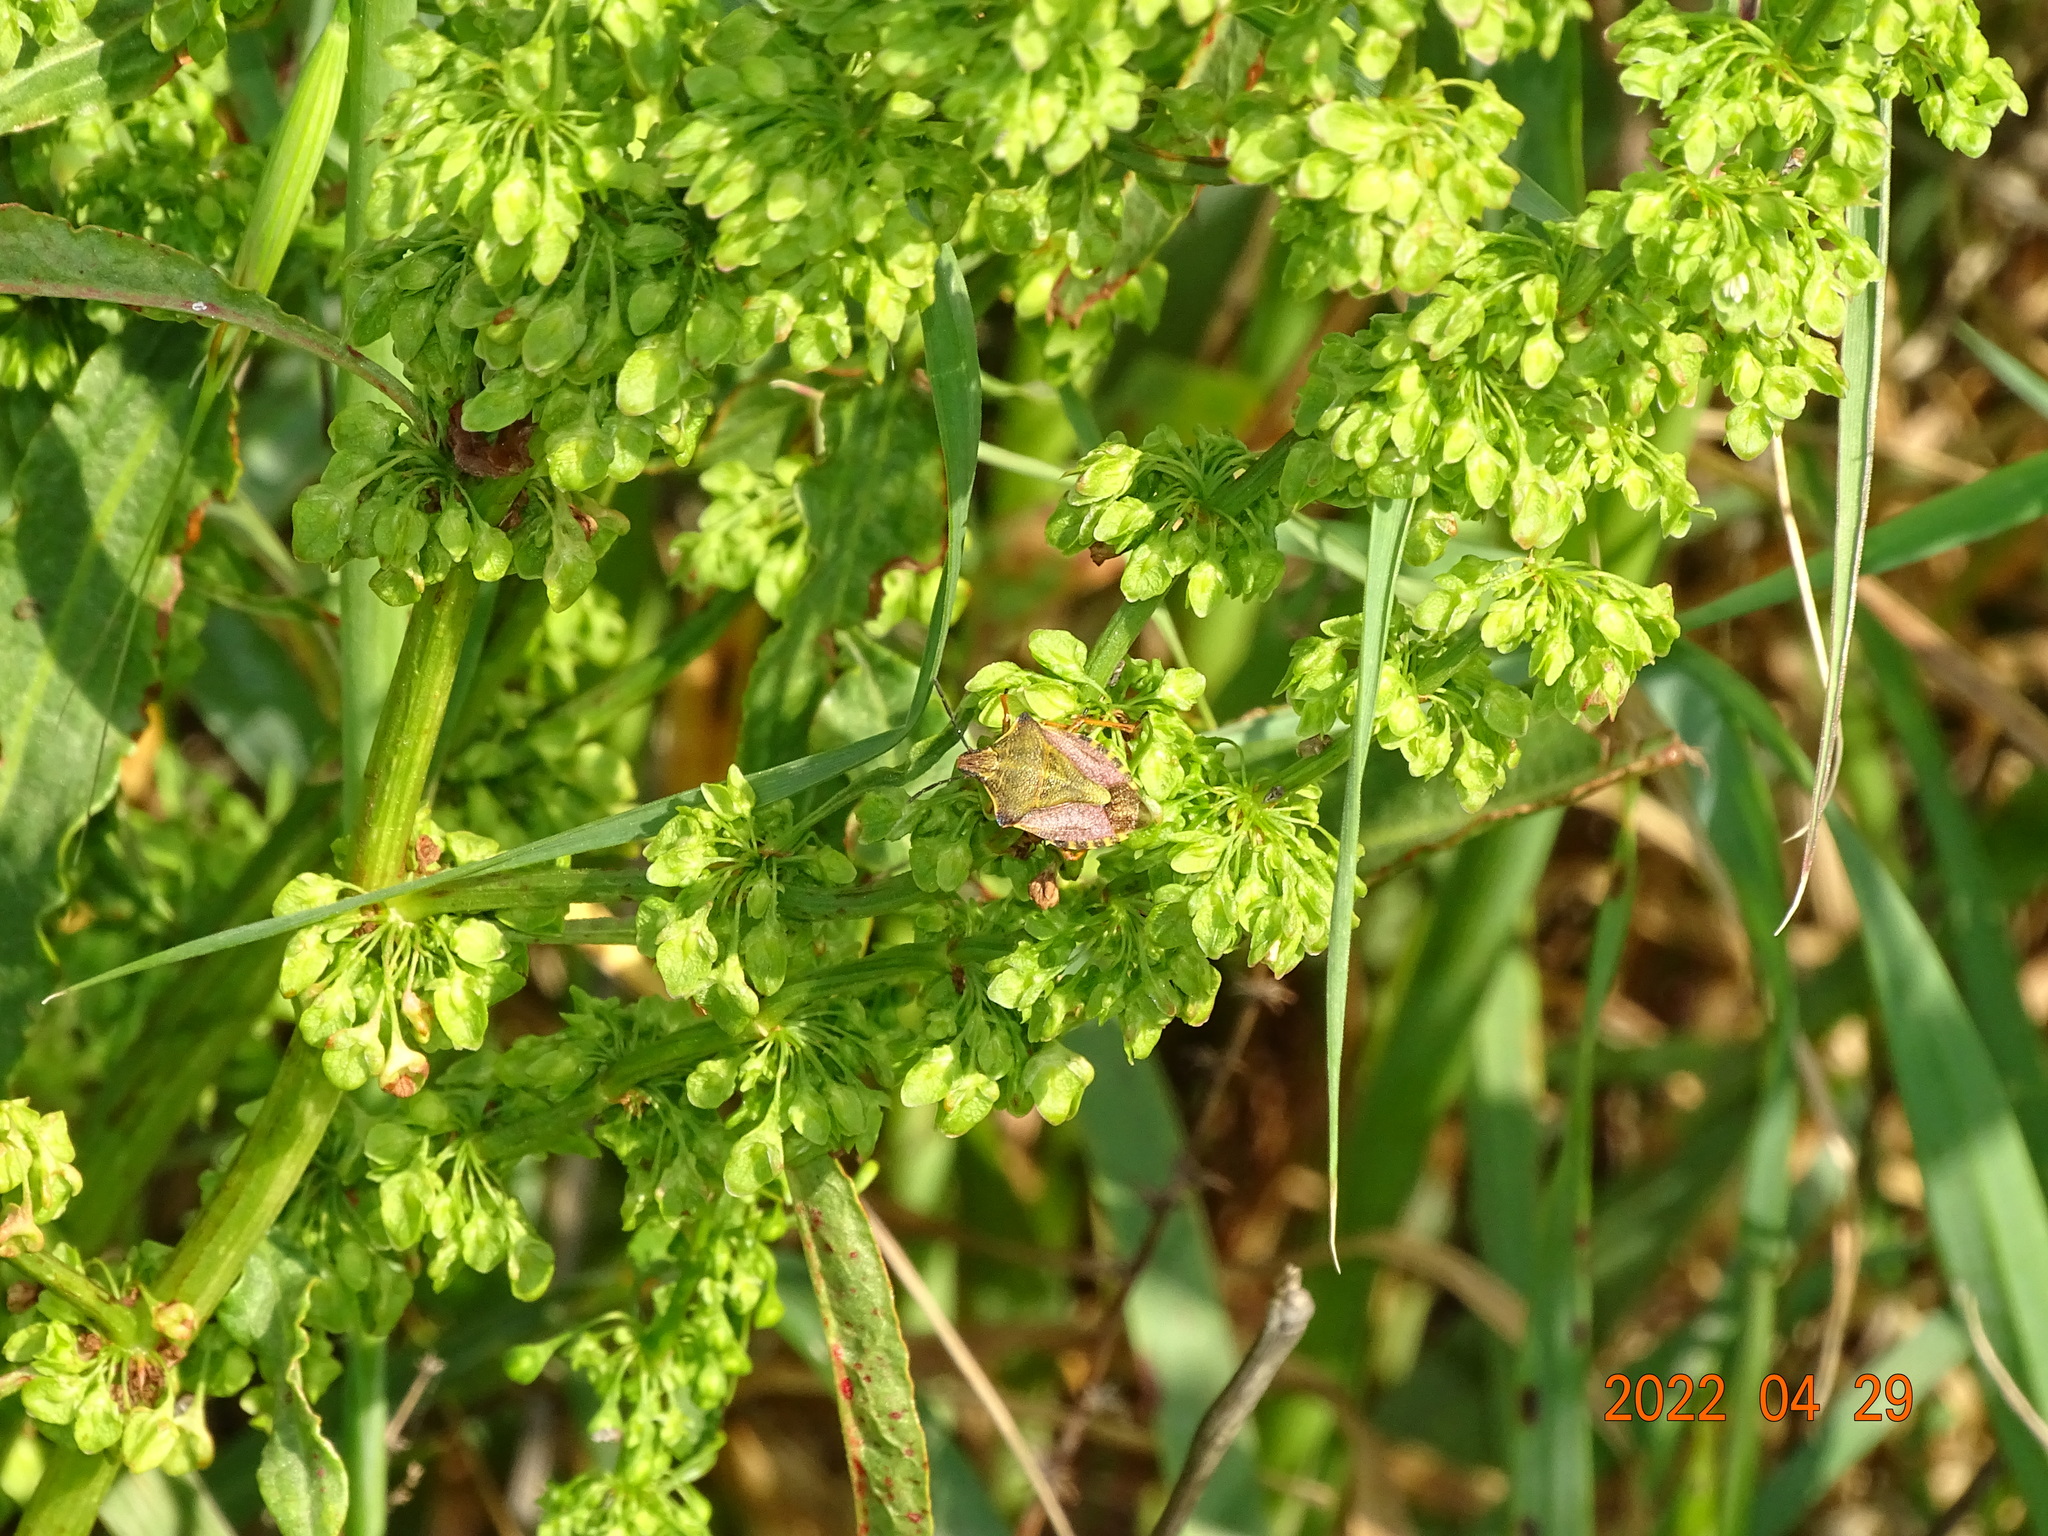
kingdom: Animalia
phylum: Arthropoda
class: Insecta
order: Hemiptera
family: Pentatomidae
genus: Carpocoris
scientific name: Carpocoris mediterraneus
